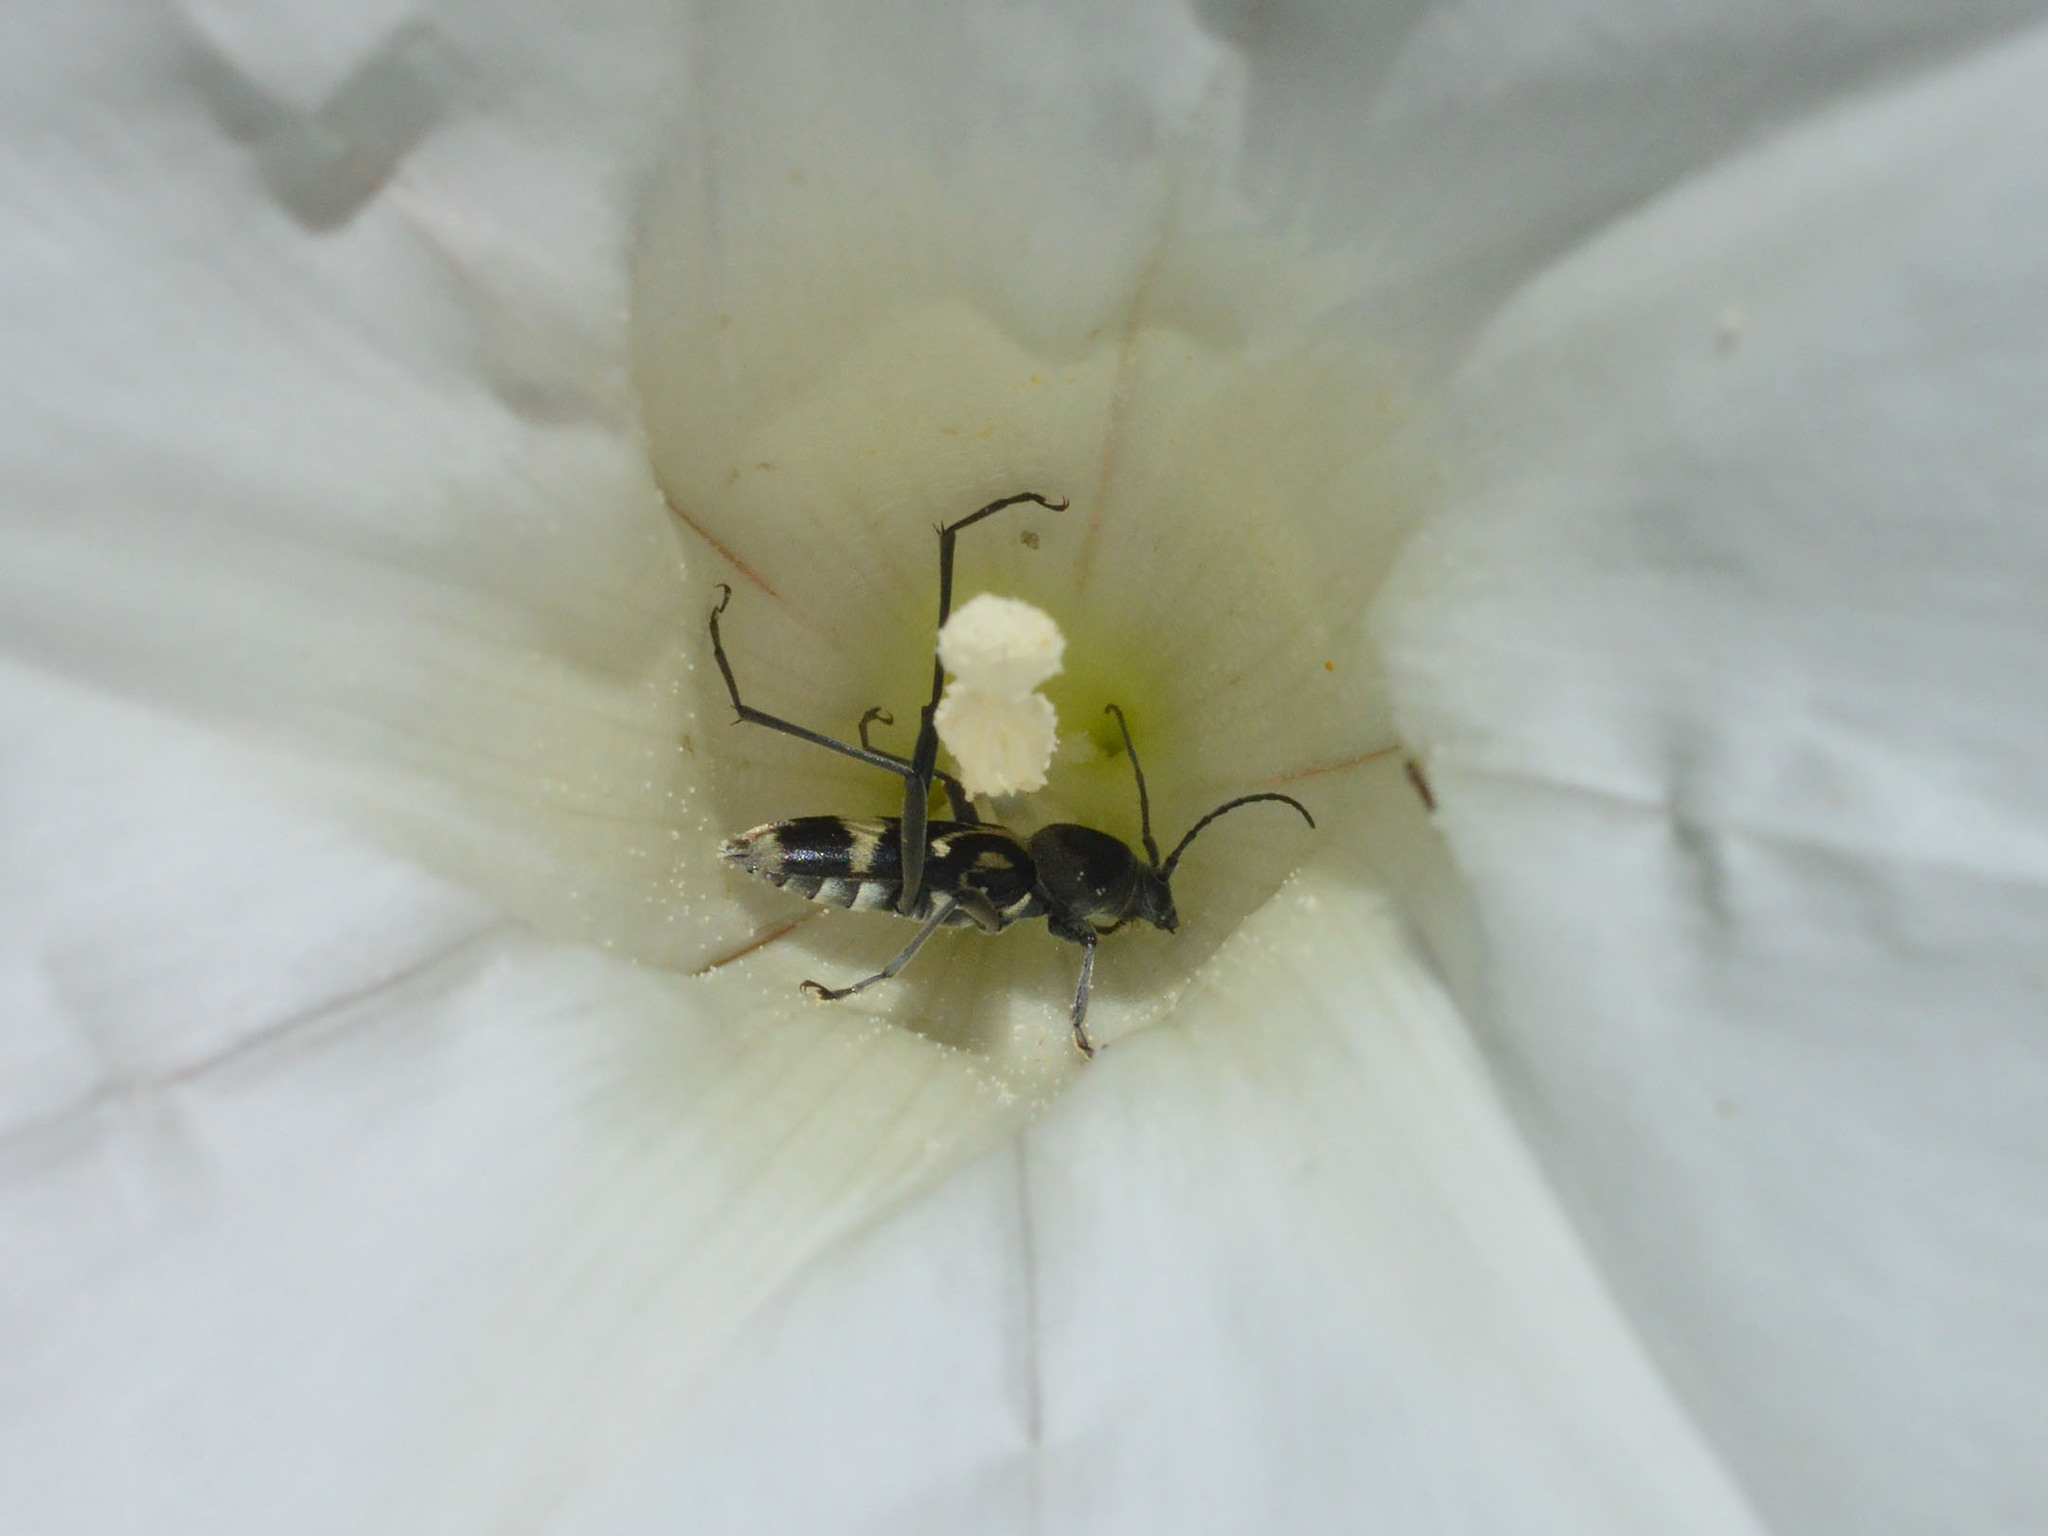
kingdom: Animalia
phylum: Arthropoda
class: Insecta
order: Coleoptera
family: Cerambycidae
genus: Chlorophorus
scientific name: Chlorophorus figuratus
